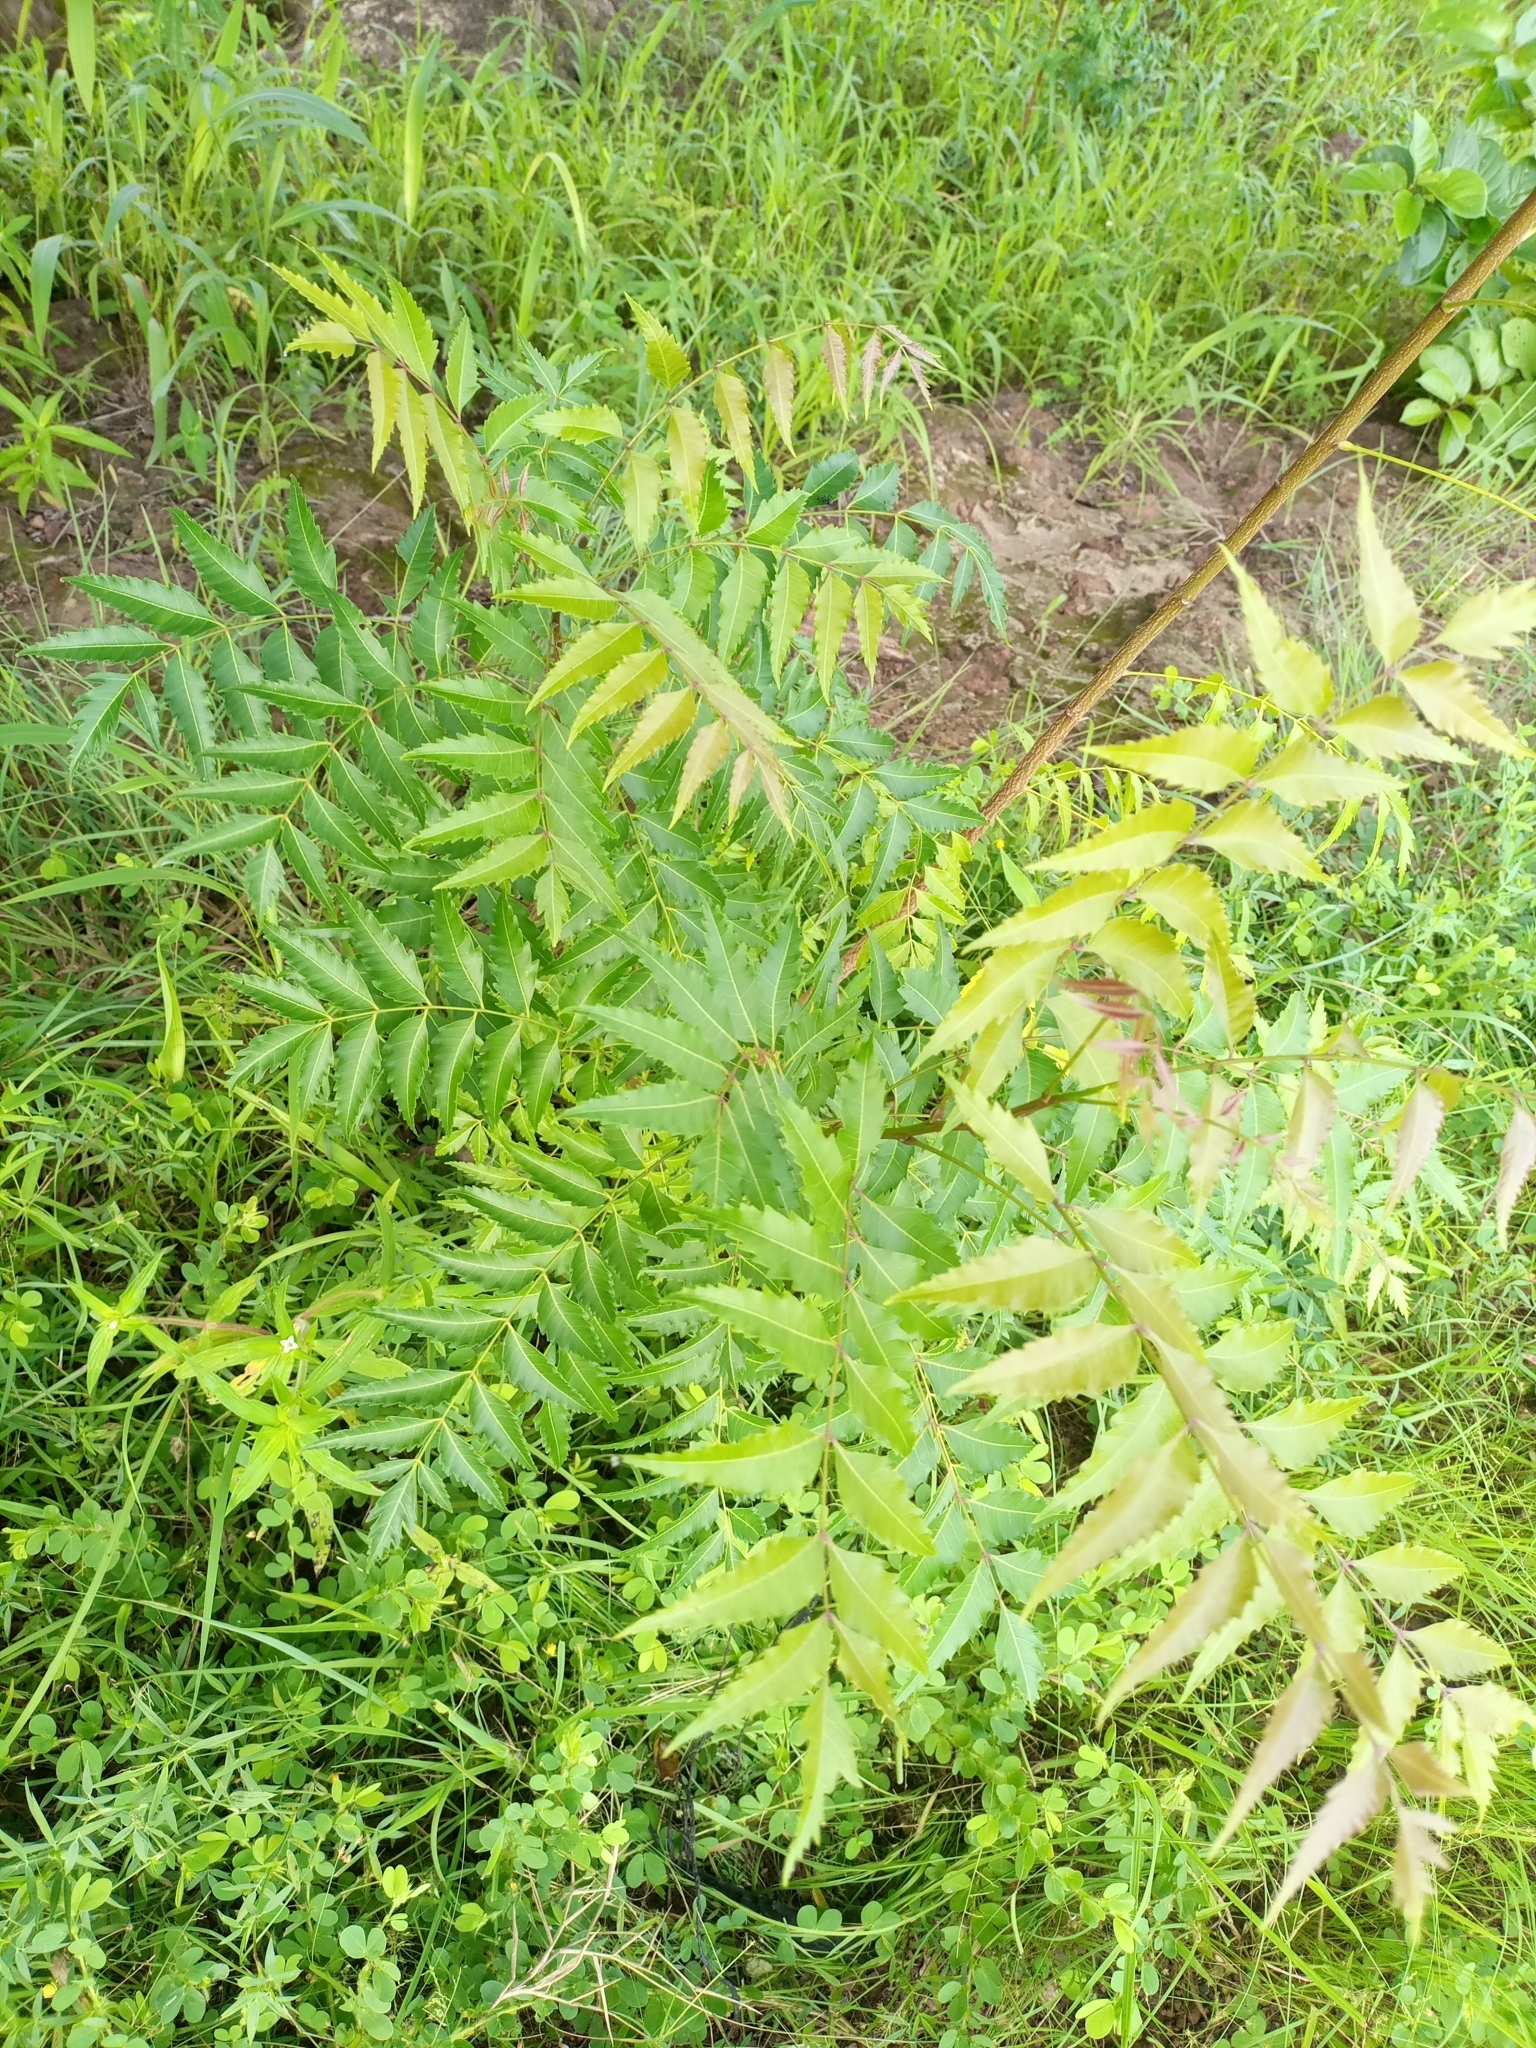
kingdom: Plantae
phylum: Tracheophyta
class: Magnoliopsida
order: Sapindales
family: Meliaceae
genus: Azadirachta
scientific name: Azadirachta indica
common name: Neem
